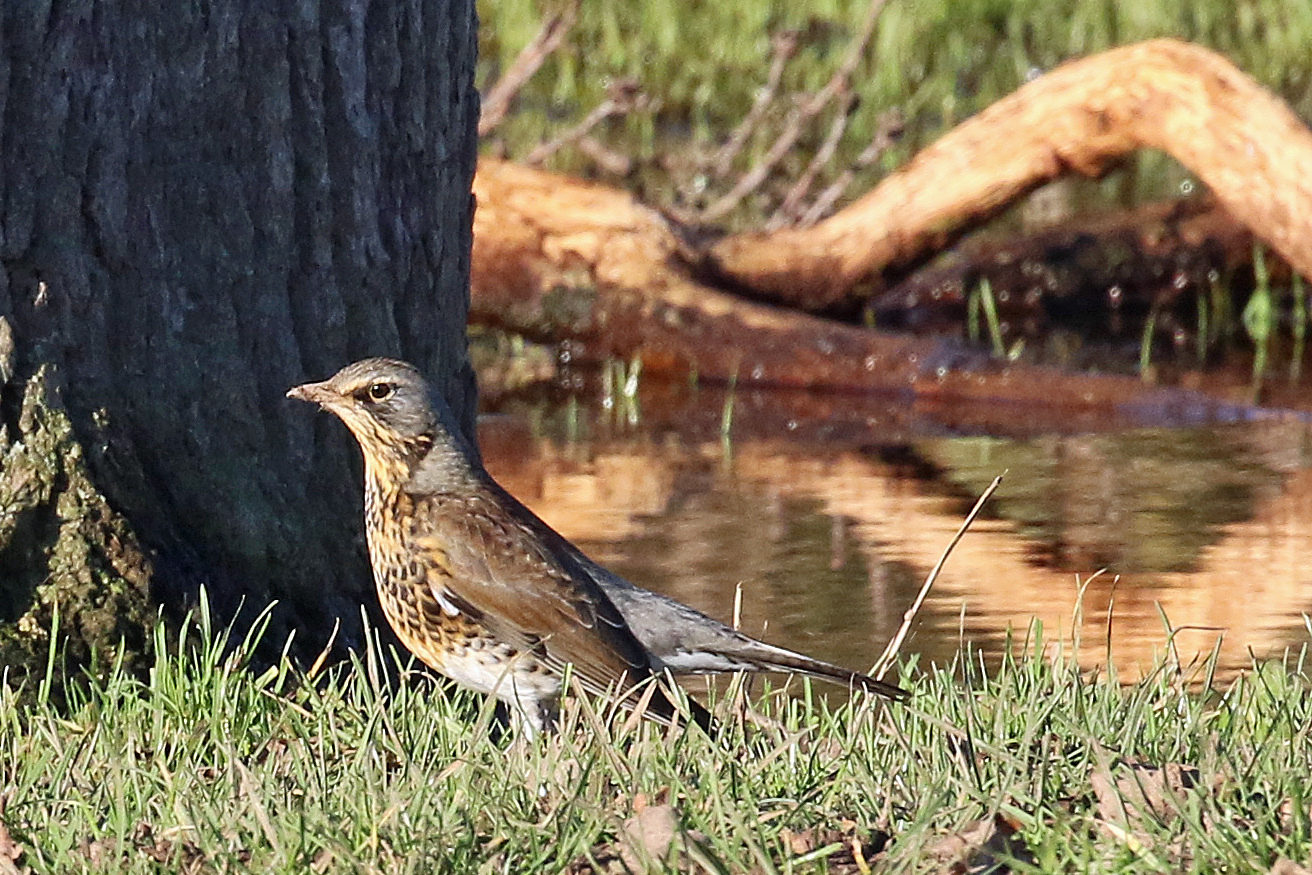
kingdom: Animalia
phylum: Chordata
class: Aves
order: Passeriformes
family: Turdidae
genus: Turdus
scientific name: Turdus pilaris
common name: Fieldfare
